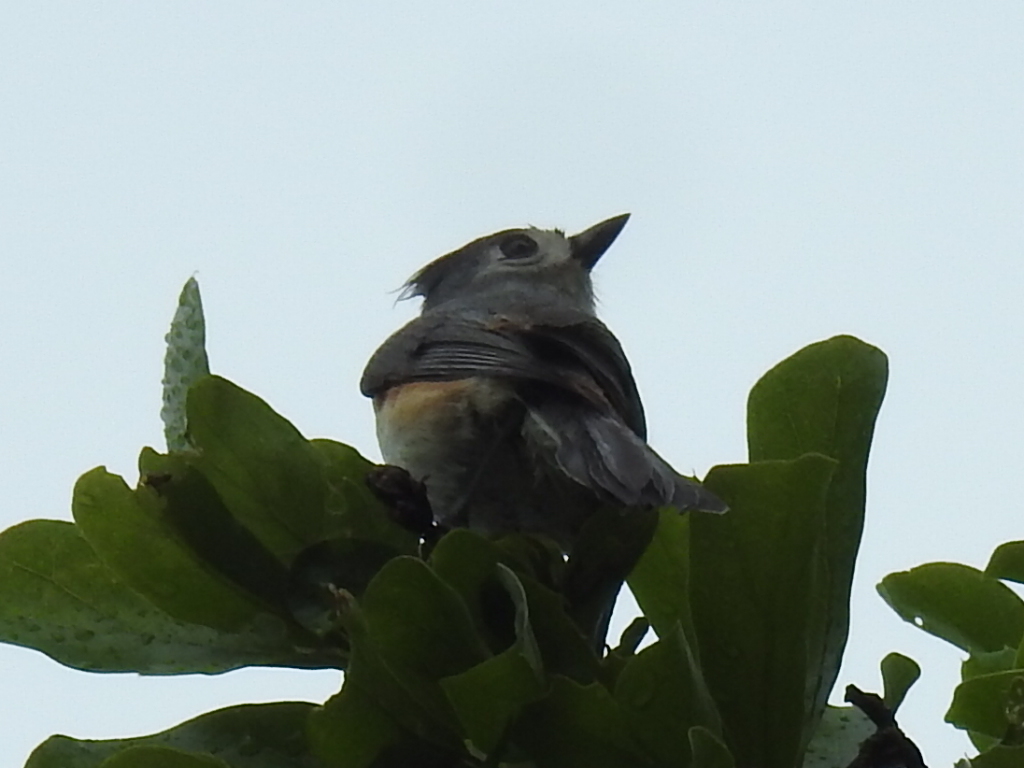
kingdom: Animalia
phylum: Chordata
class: Aves
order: Passeriformes
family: Paridae
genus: Baeolophus
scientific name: Baeolophus bicolor
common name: Tufted titmouse
